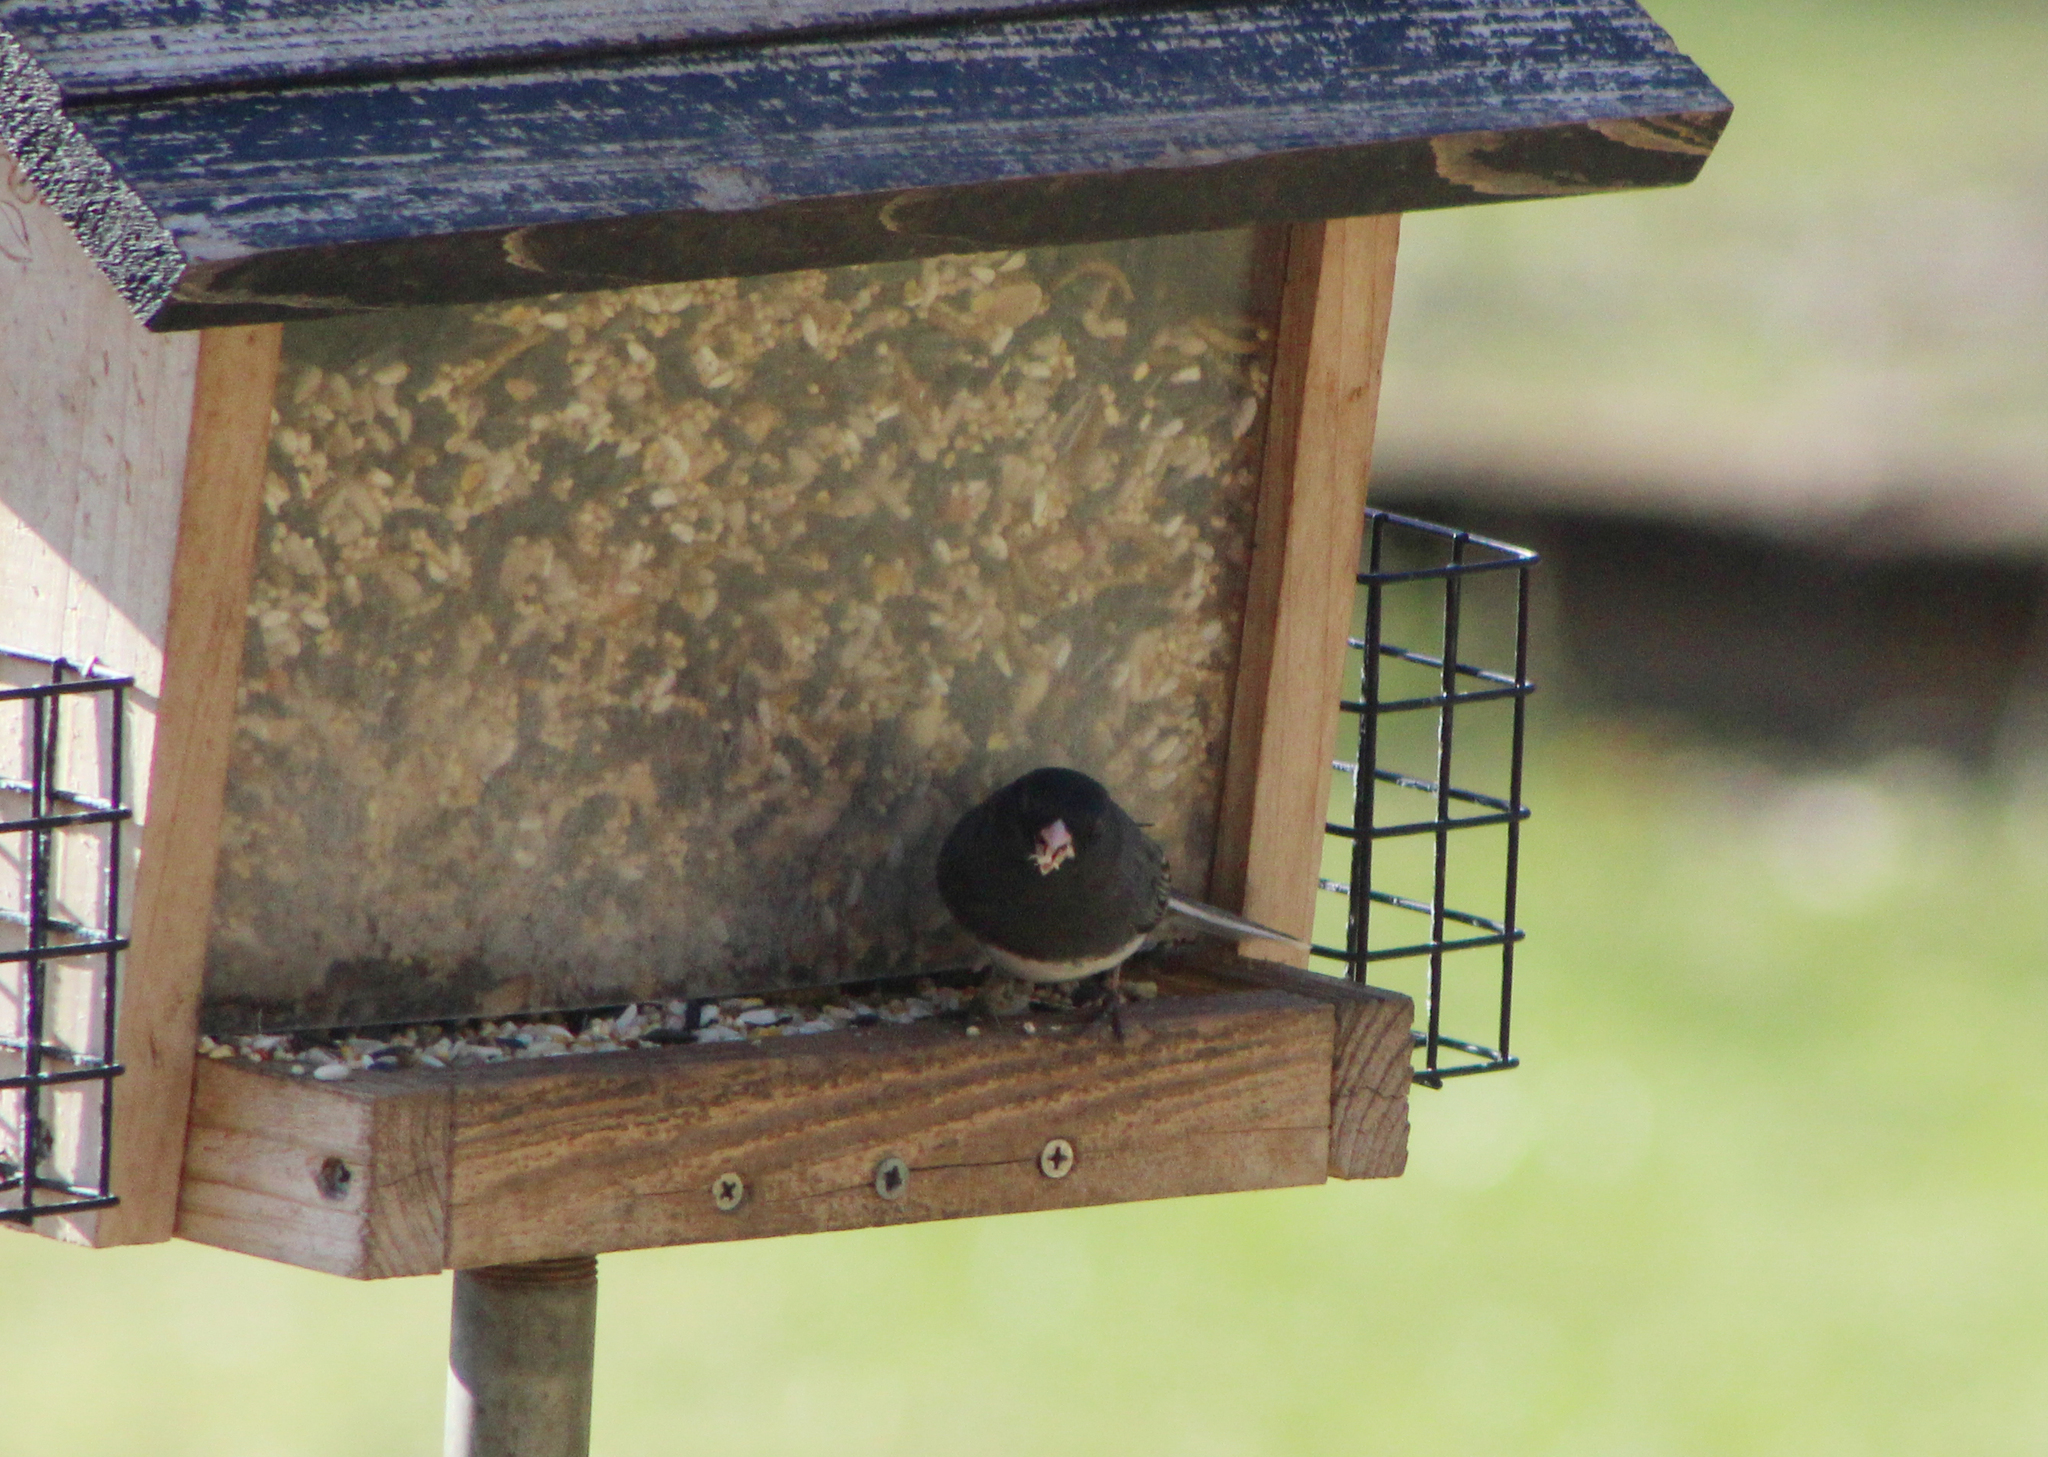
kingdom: Animalia
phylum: Chordata
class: Aves
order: Passeriformes
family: Passerellidae
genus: Junco
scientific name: Junco hyemalis
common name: Dark-eyed junco
